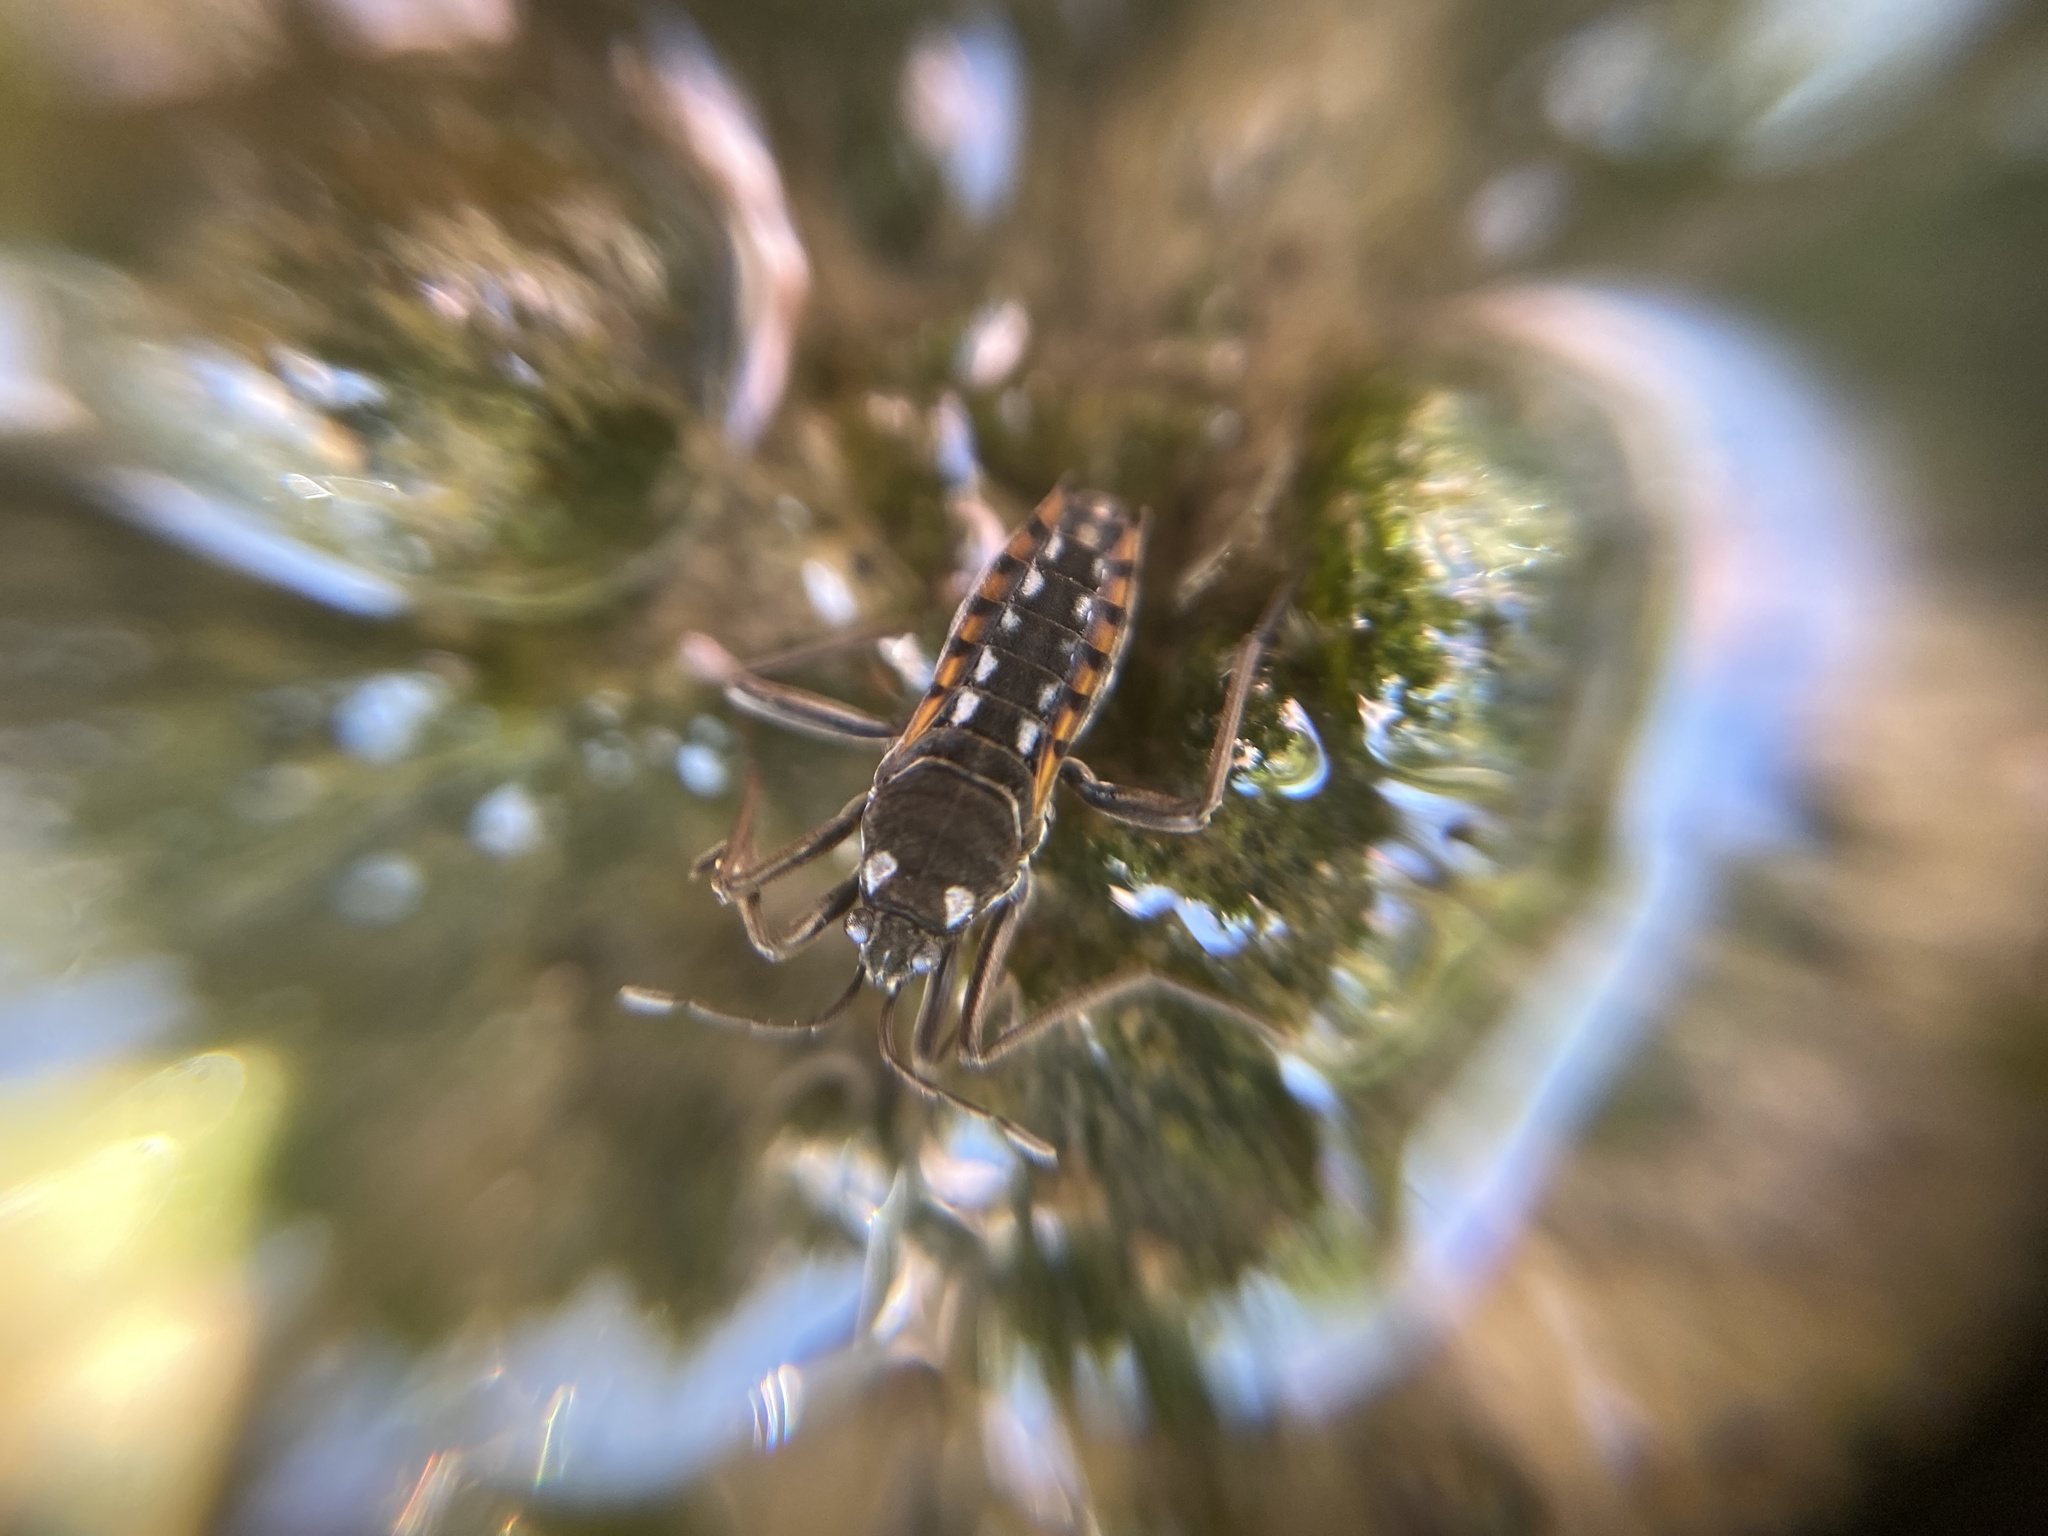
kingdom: Animalia
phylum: Arthropoda
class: Insecta
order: Hemiptera
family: Veliidae
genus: Velia
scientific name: Velia caprai
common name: Water cricket
